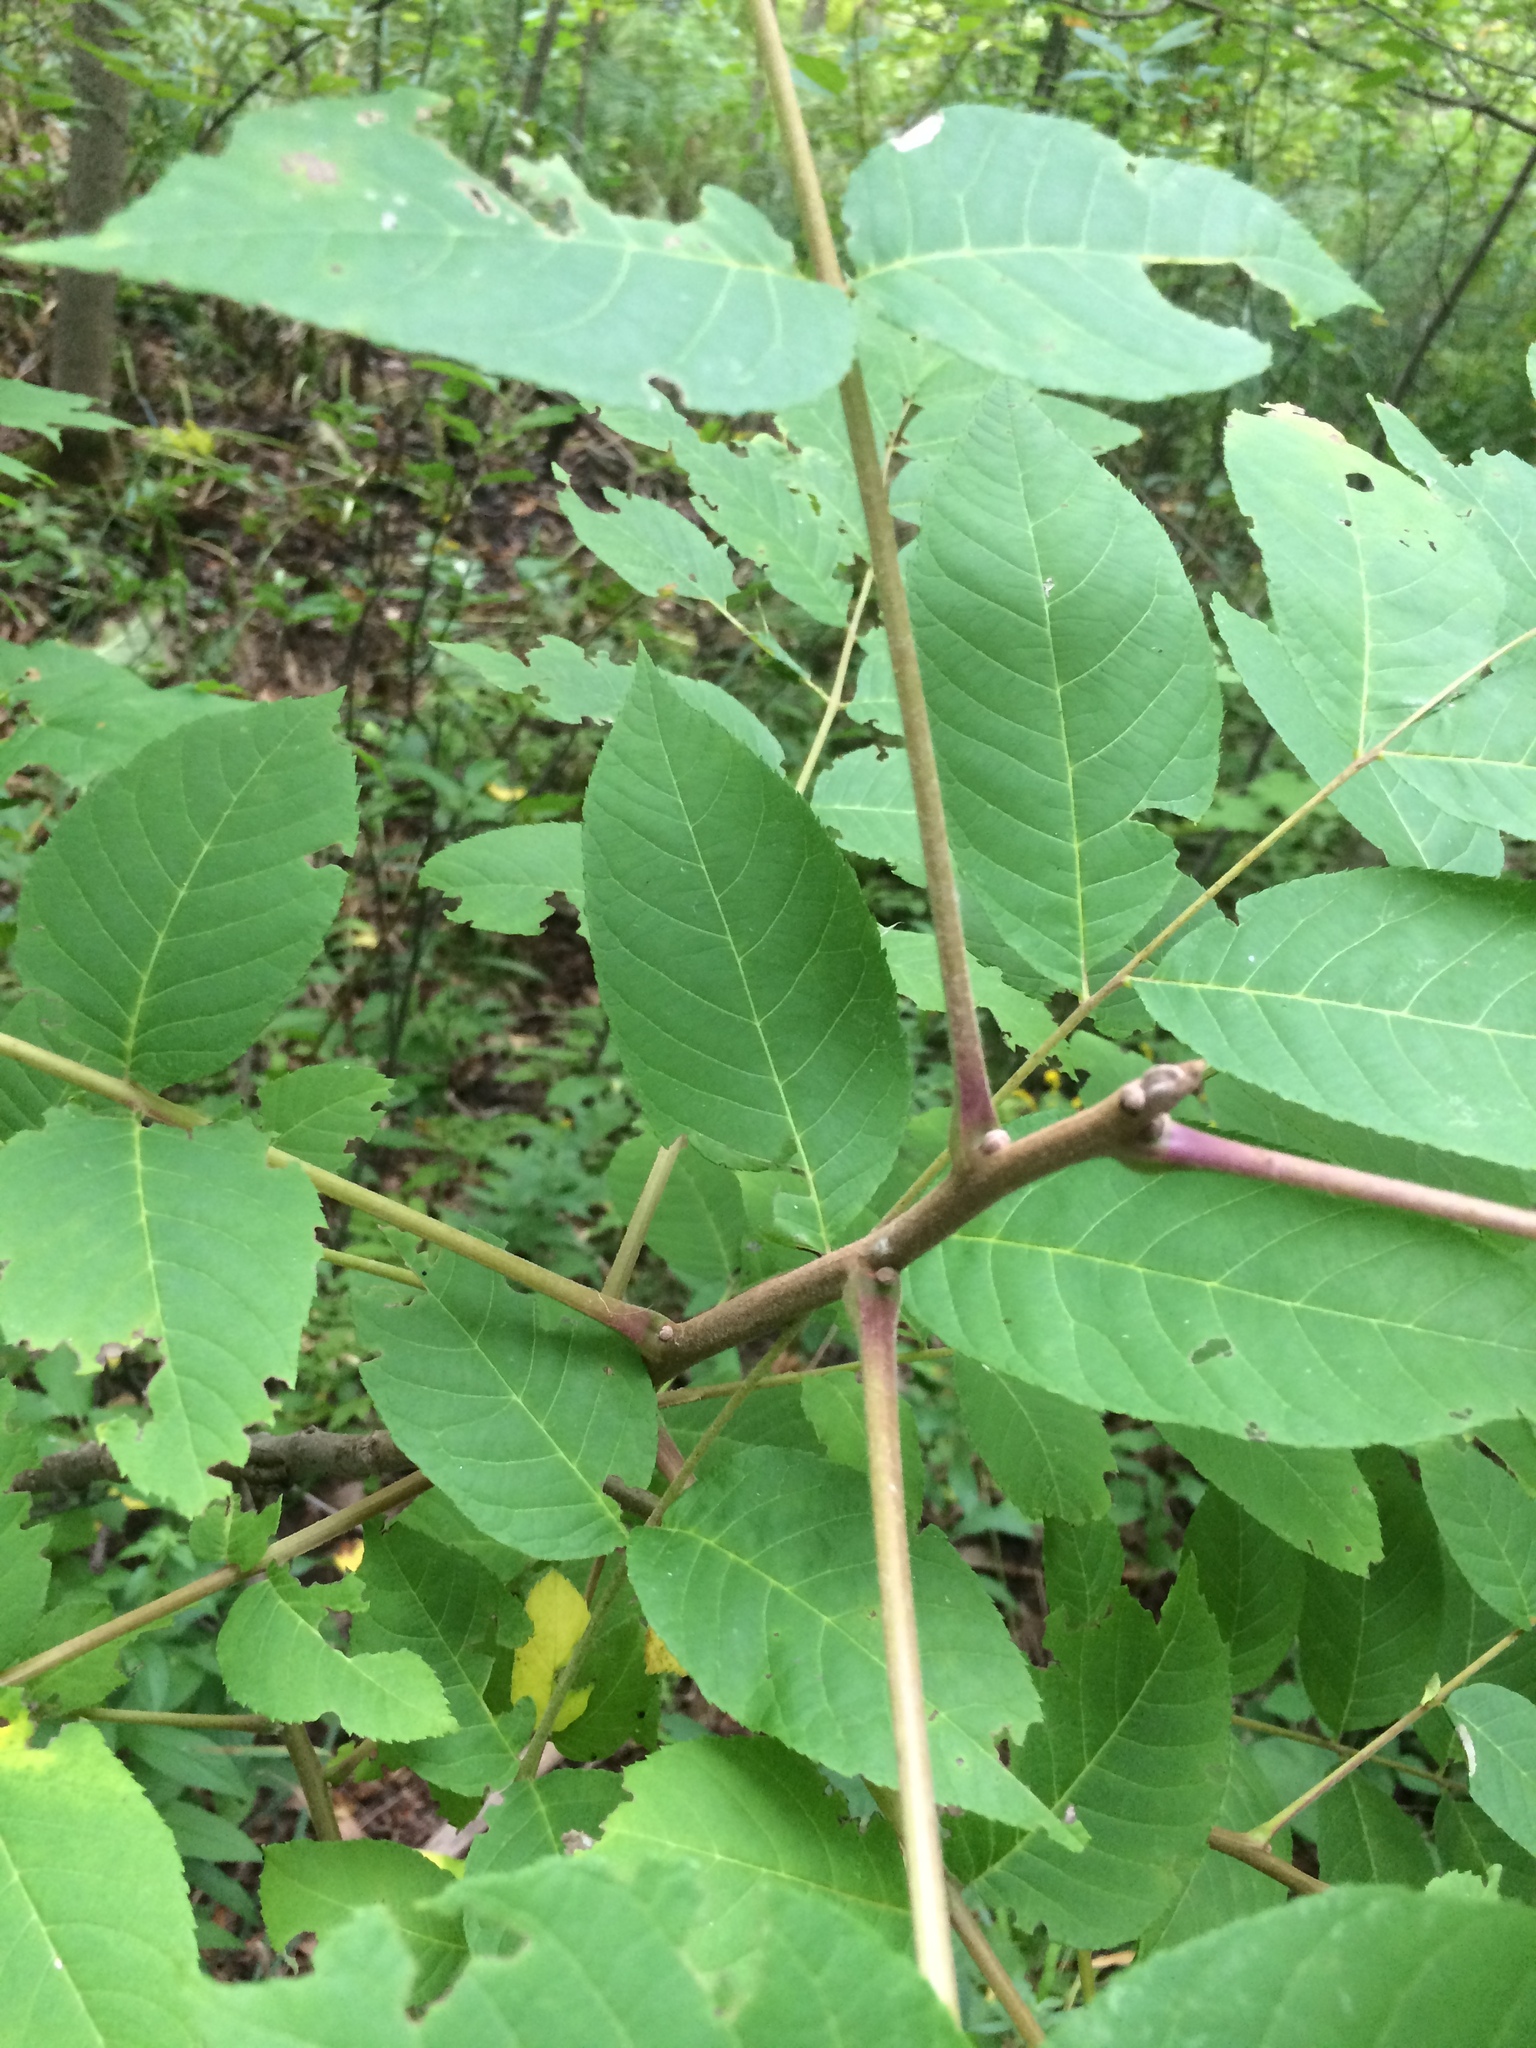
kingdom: Plantae
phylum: Tracheophyta
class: Magnoliopsida
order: Fagales
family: Juglandaceae
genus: Juglans
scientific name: Juglans nigra
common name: Black walnut
